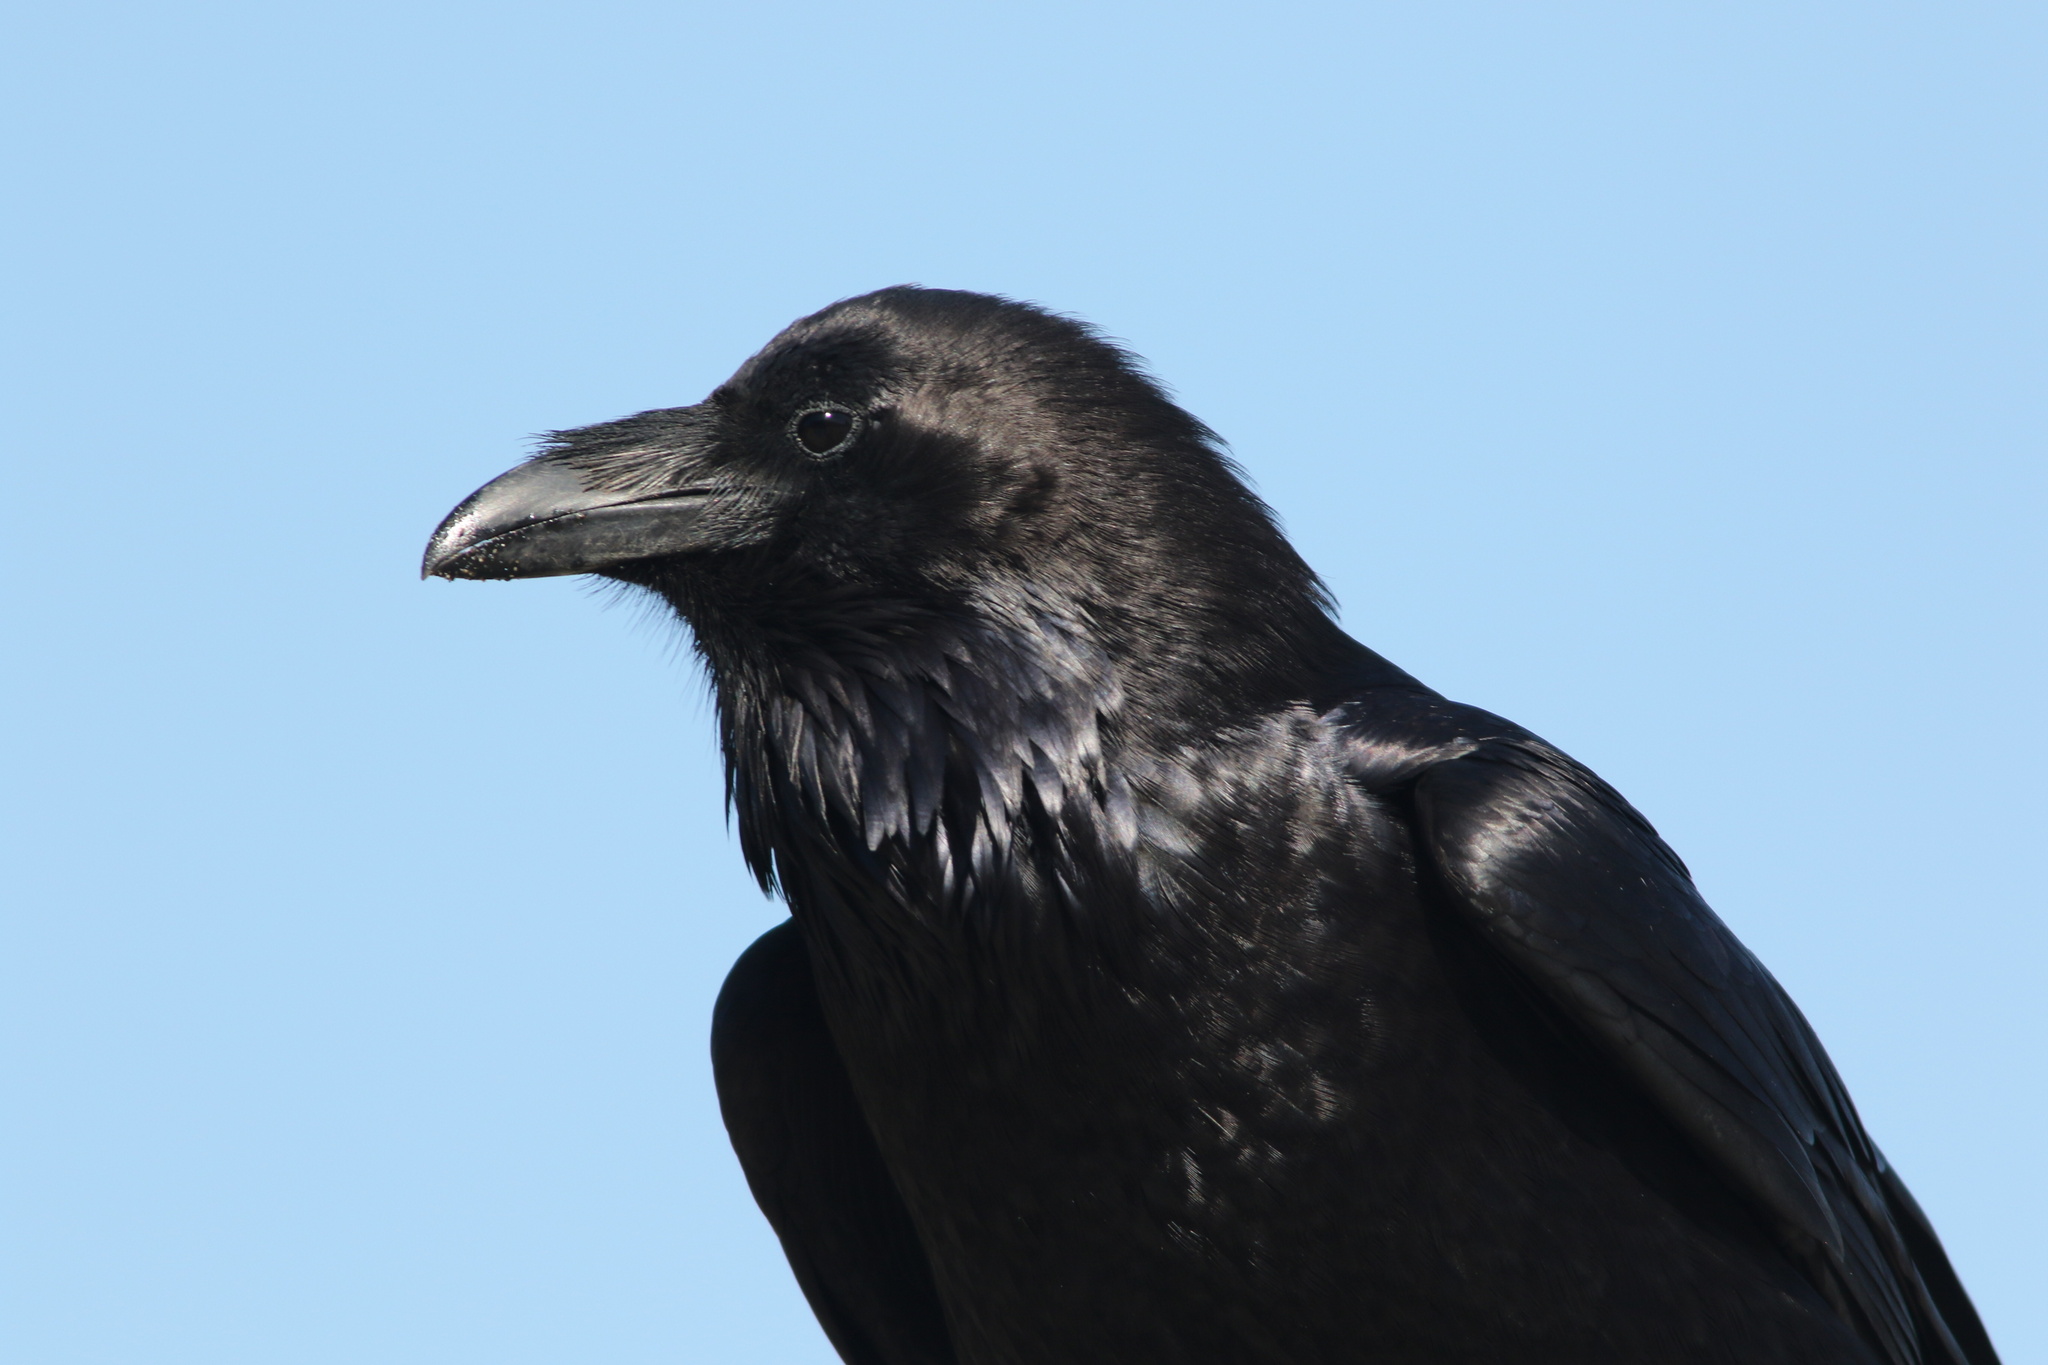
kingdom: Animalia
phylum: Chordata
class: Aves
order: Passeriformes
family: Corvidae
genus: Corvus
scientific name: Corvus corax
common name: Common raven
